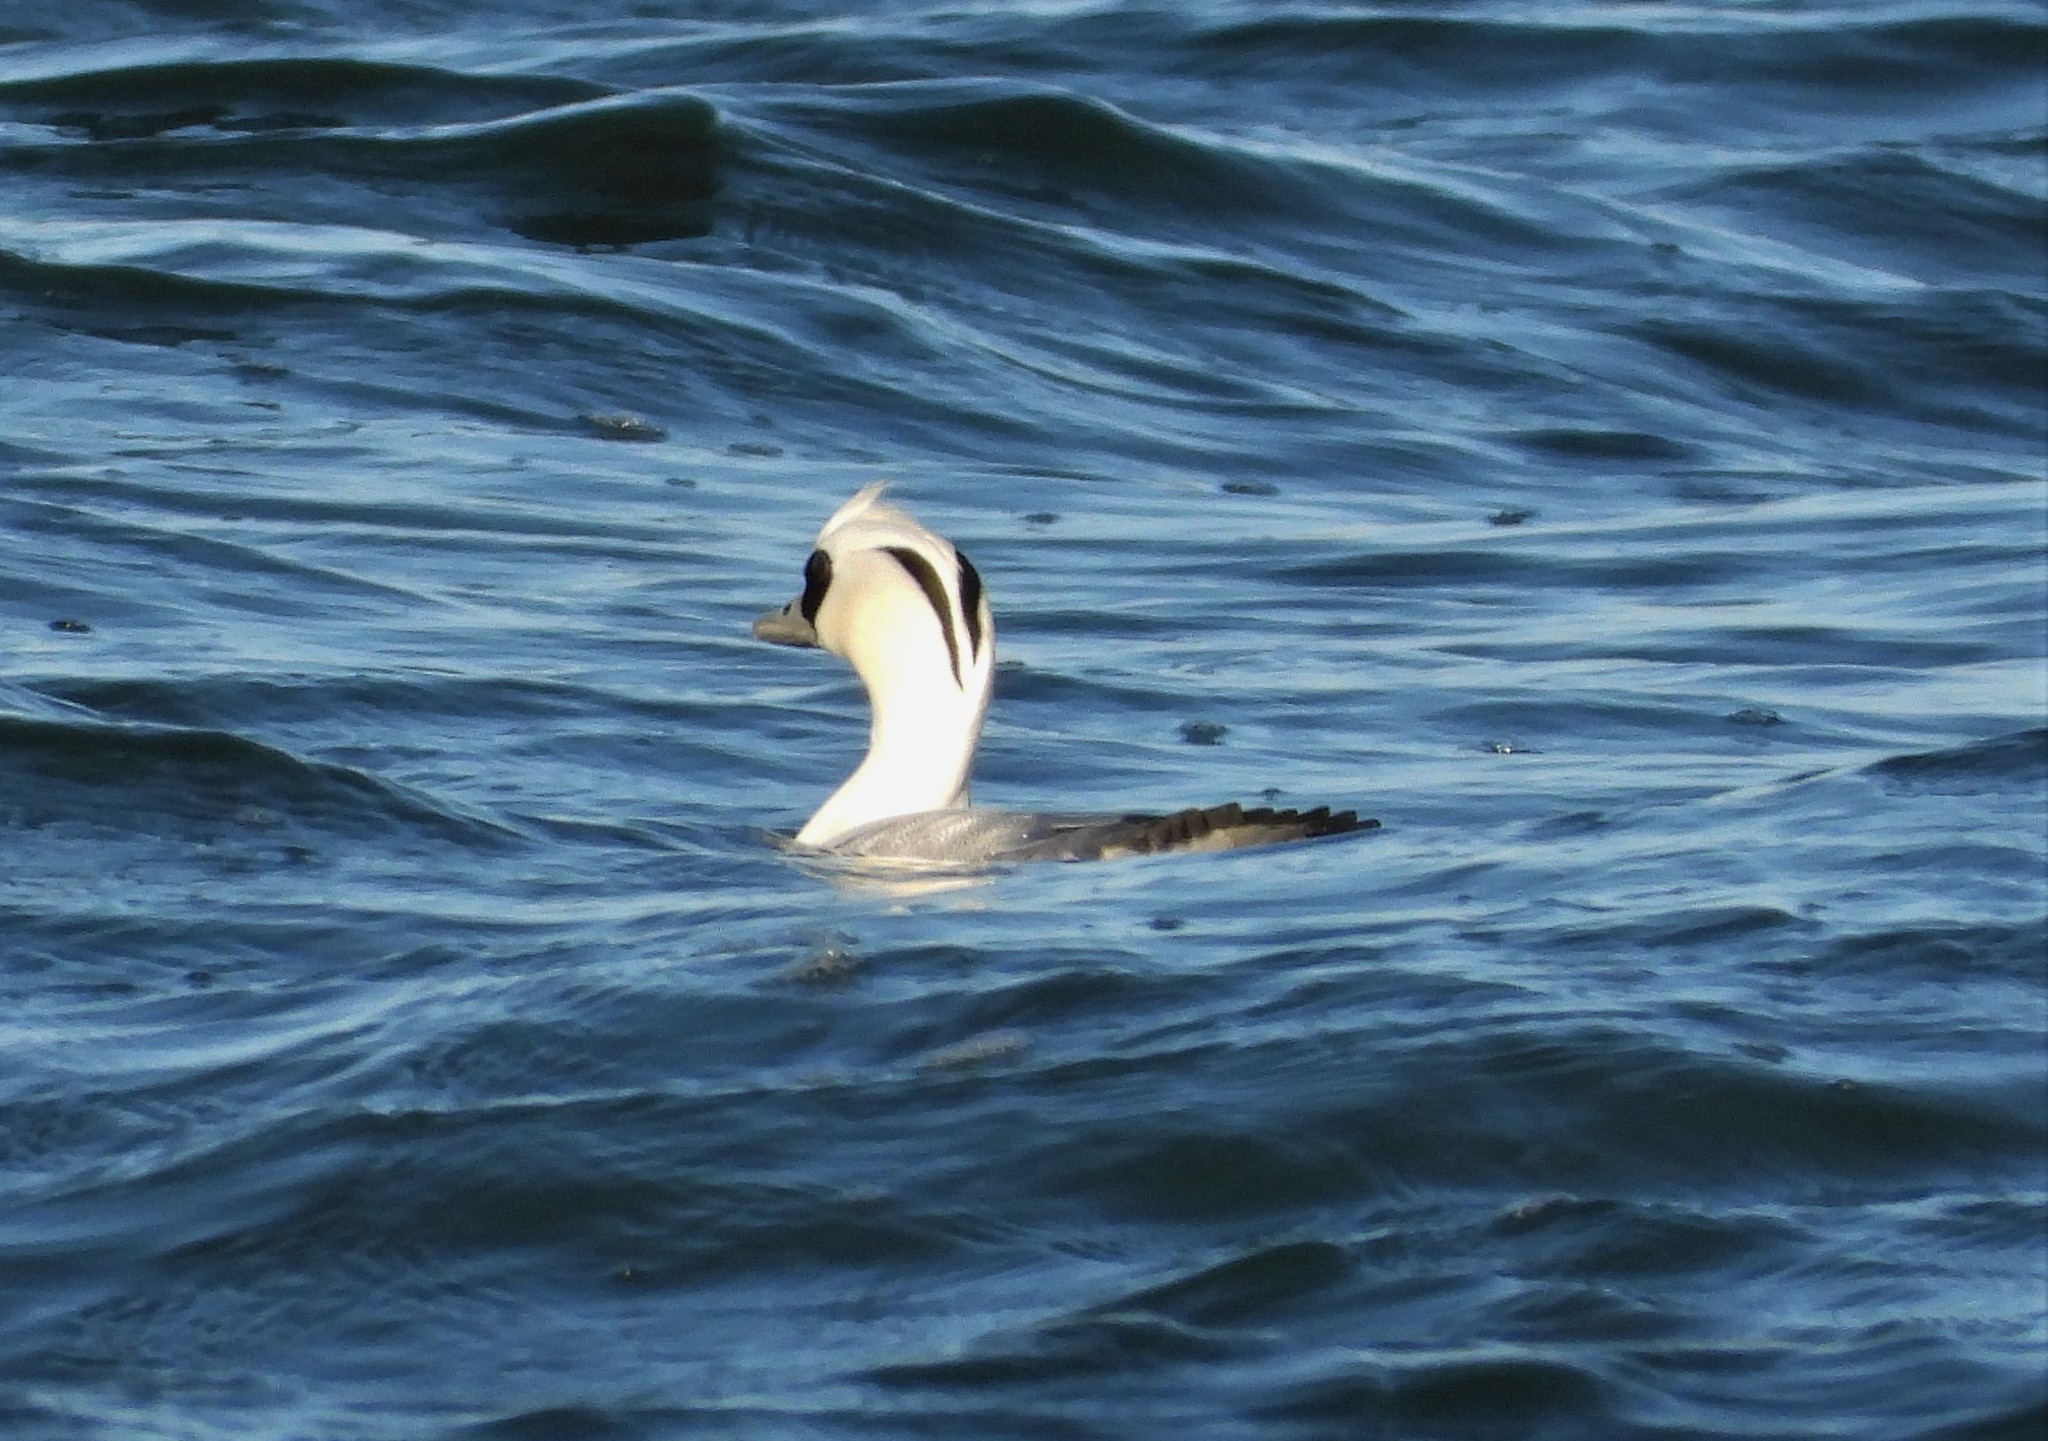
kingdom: Animalia
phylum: Chordata
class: Aves
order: Anseriformes
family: Anatidae
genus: Mergellus
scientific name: Mergellus albellus
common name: Smew
